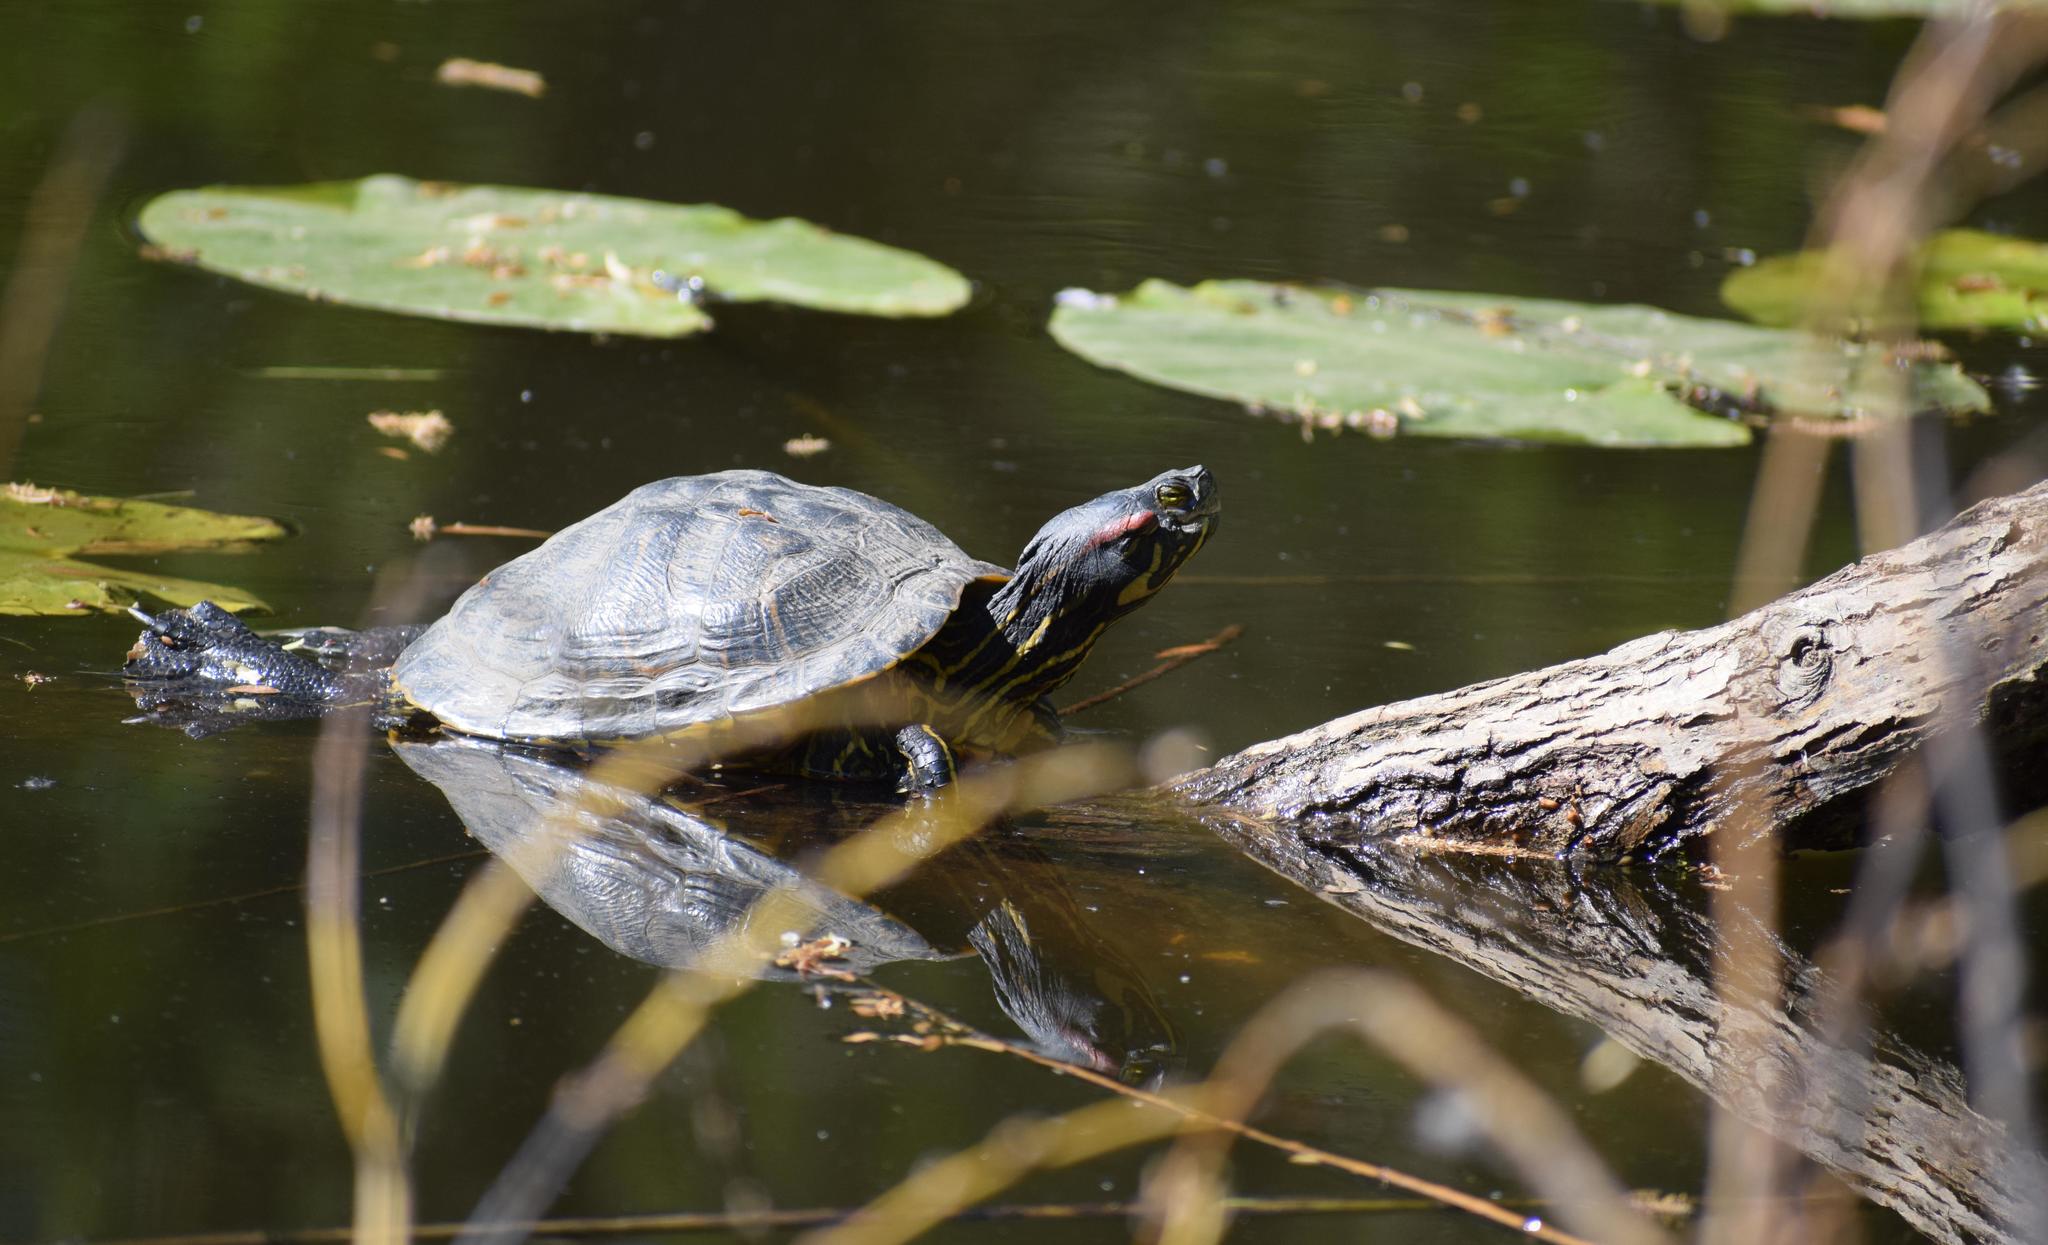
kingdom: Animalia
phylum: Chordata
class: Testudines
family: Emydidae
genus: Trachemys
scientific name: Trachemys scripta
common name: Slider
